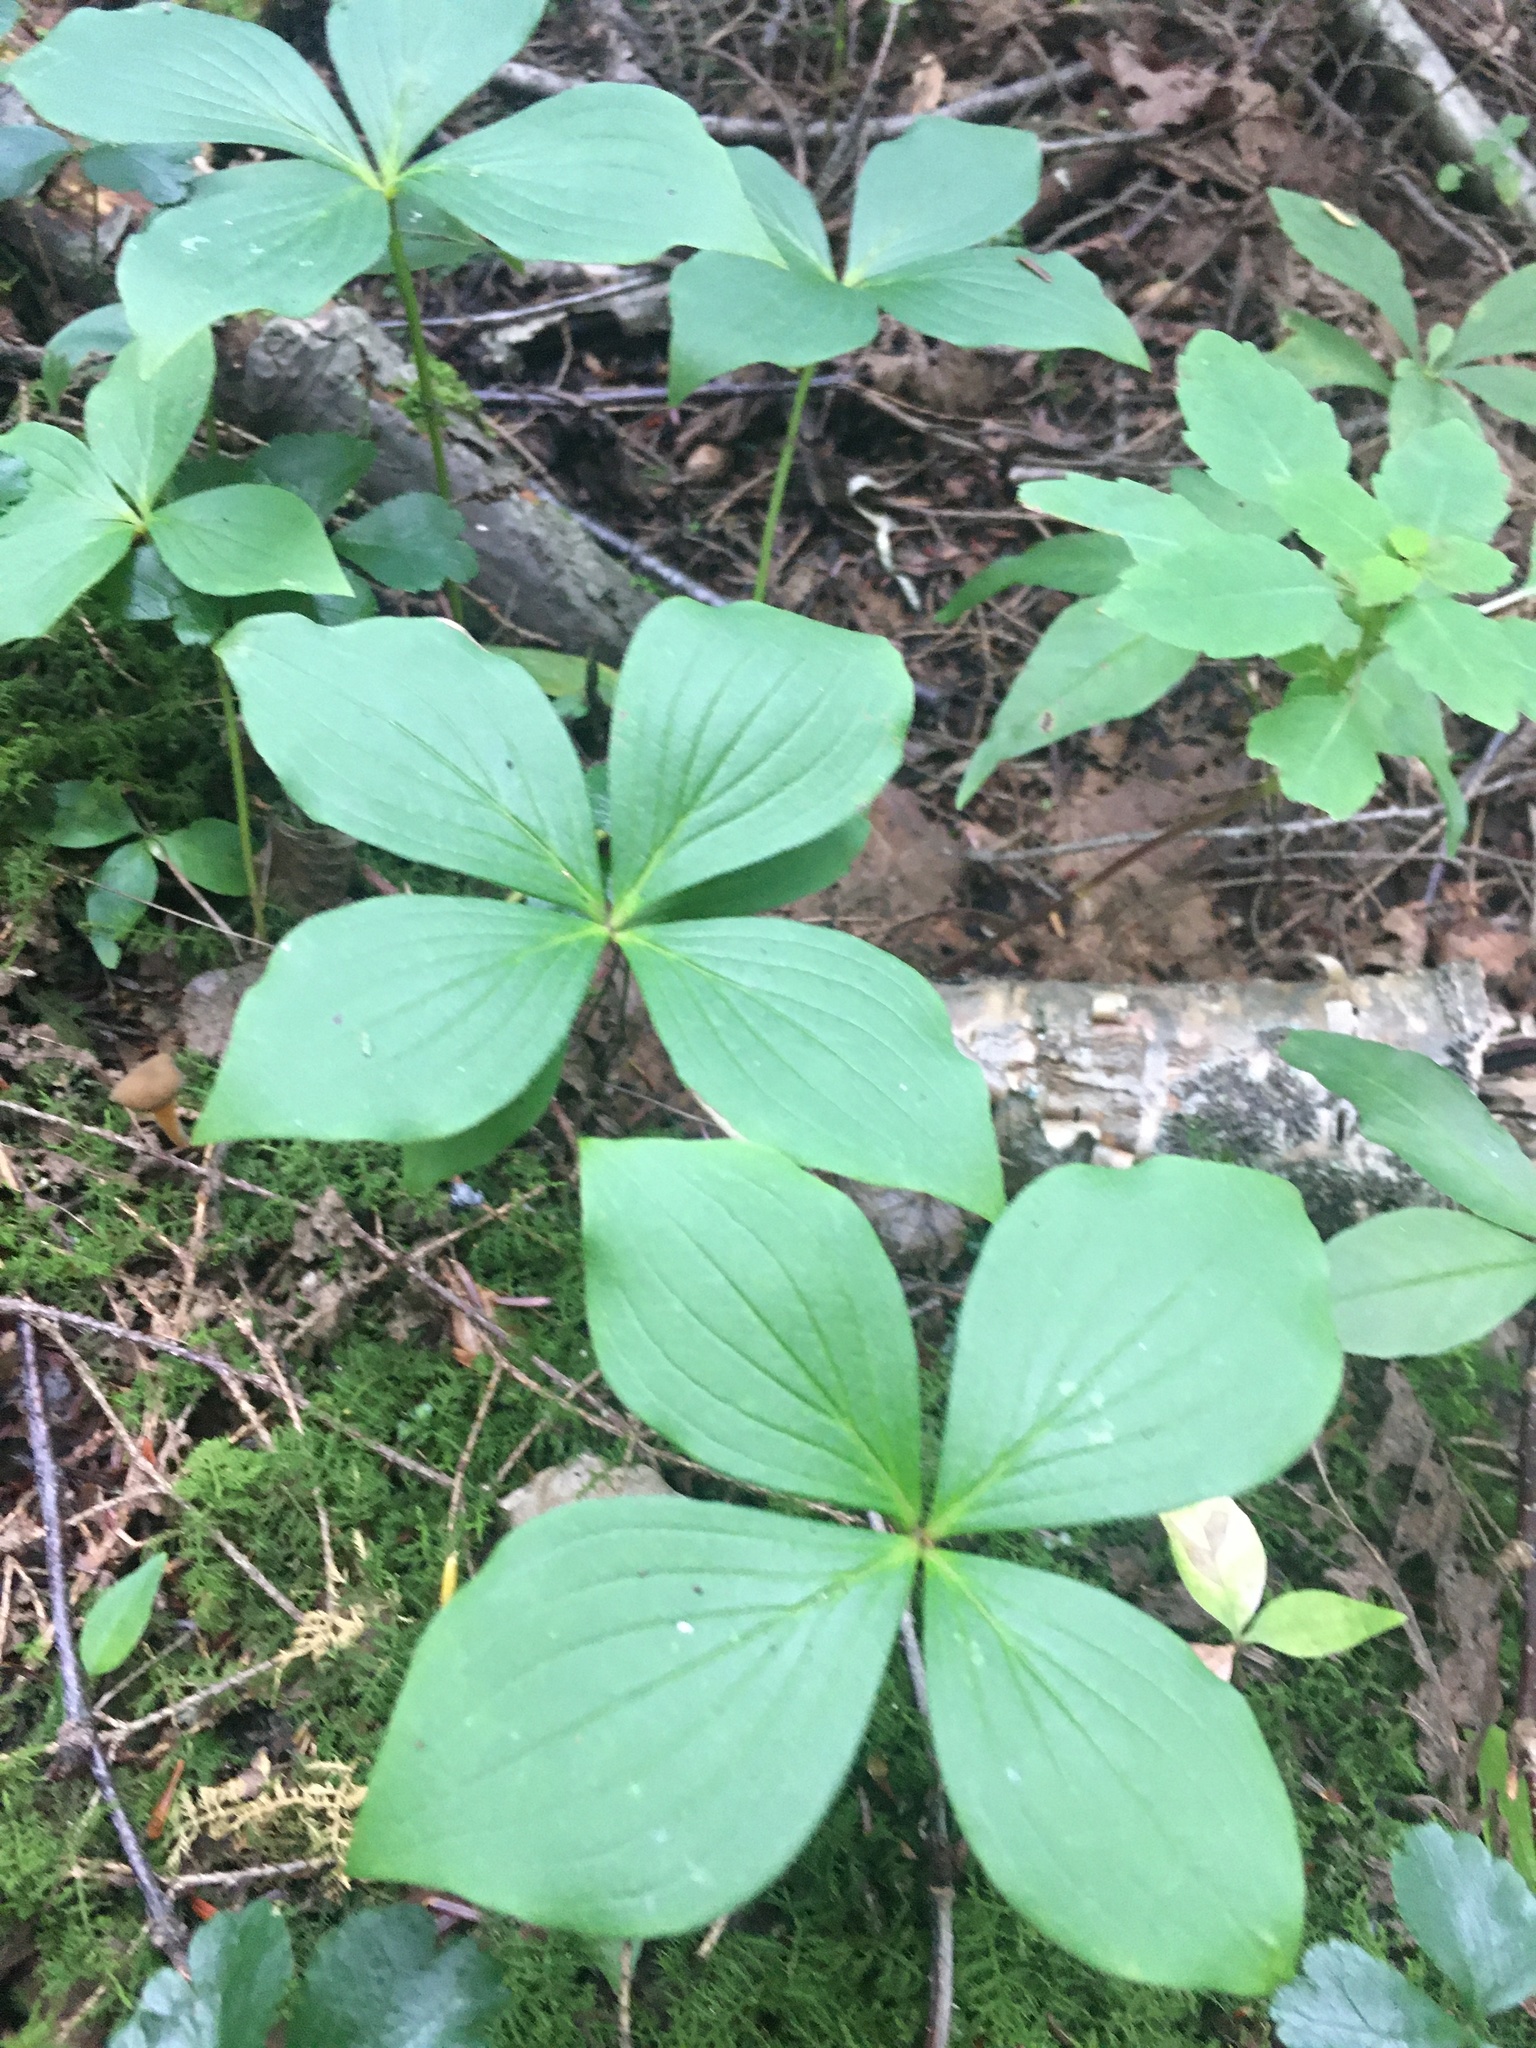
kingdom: Plantae
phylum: Tracheophyta
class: Magnoliopsida
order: Cornales
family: Cornaceae
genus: Cornus
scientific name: Cornus canadensis
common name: Creeping dogwood
